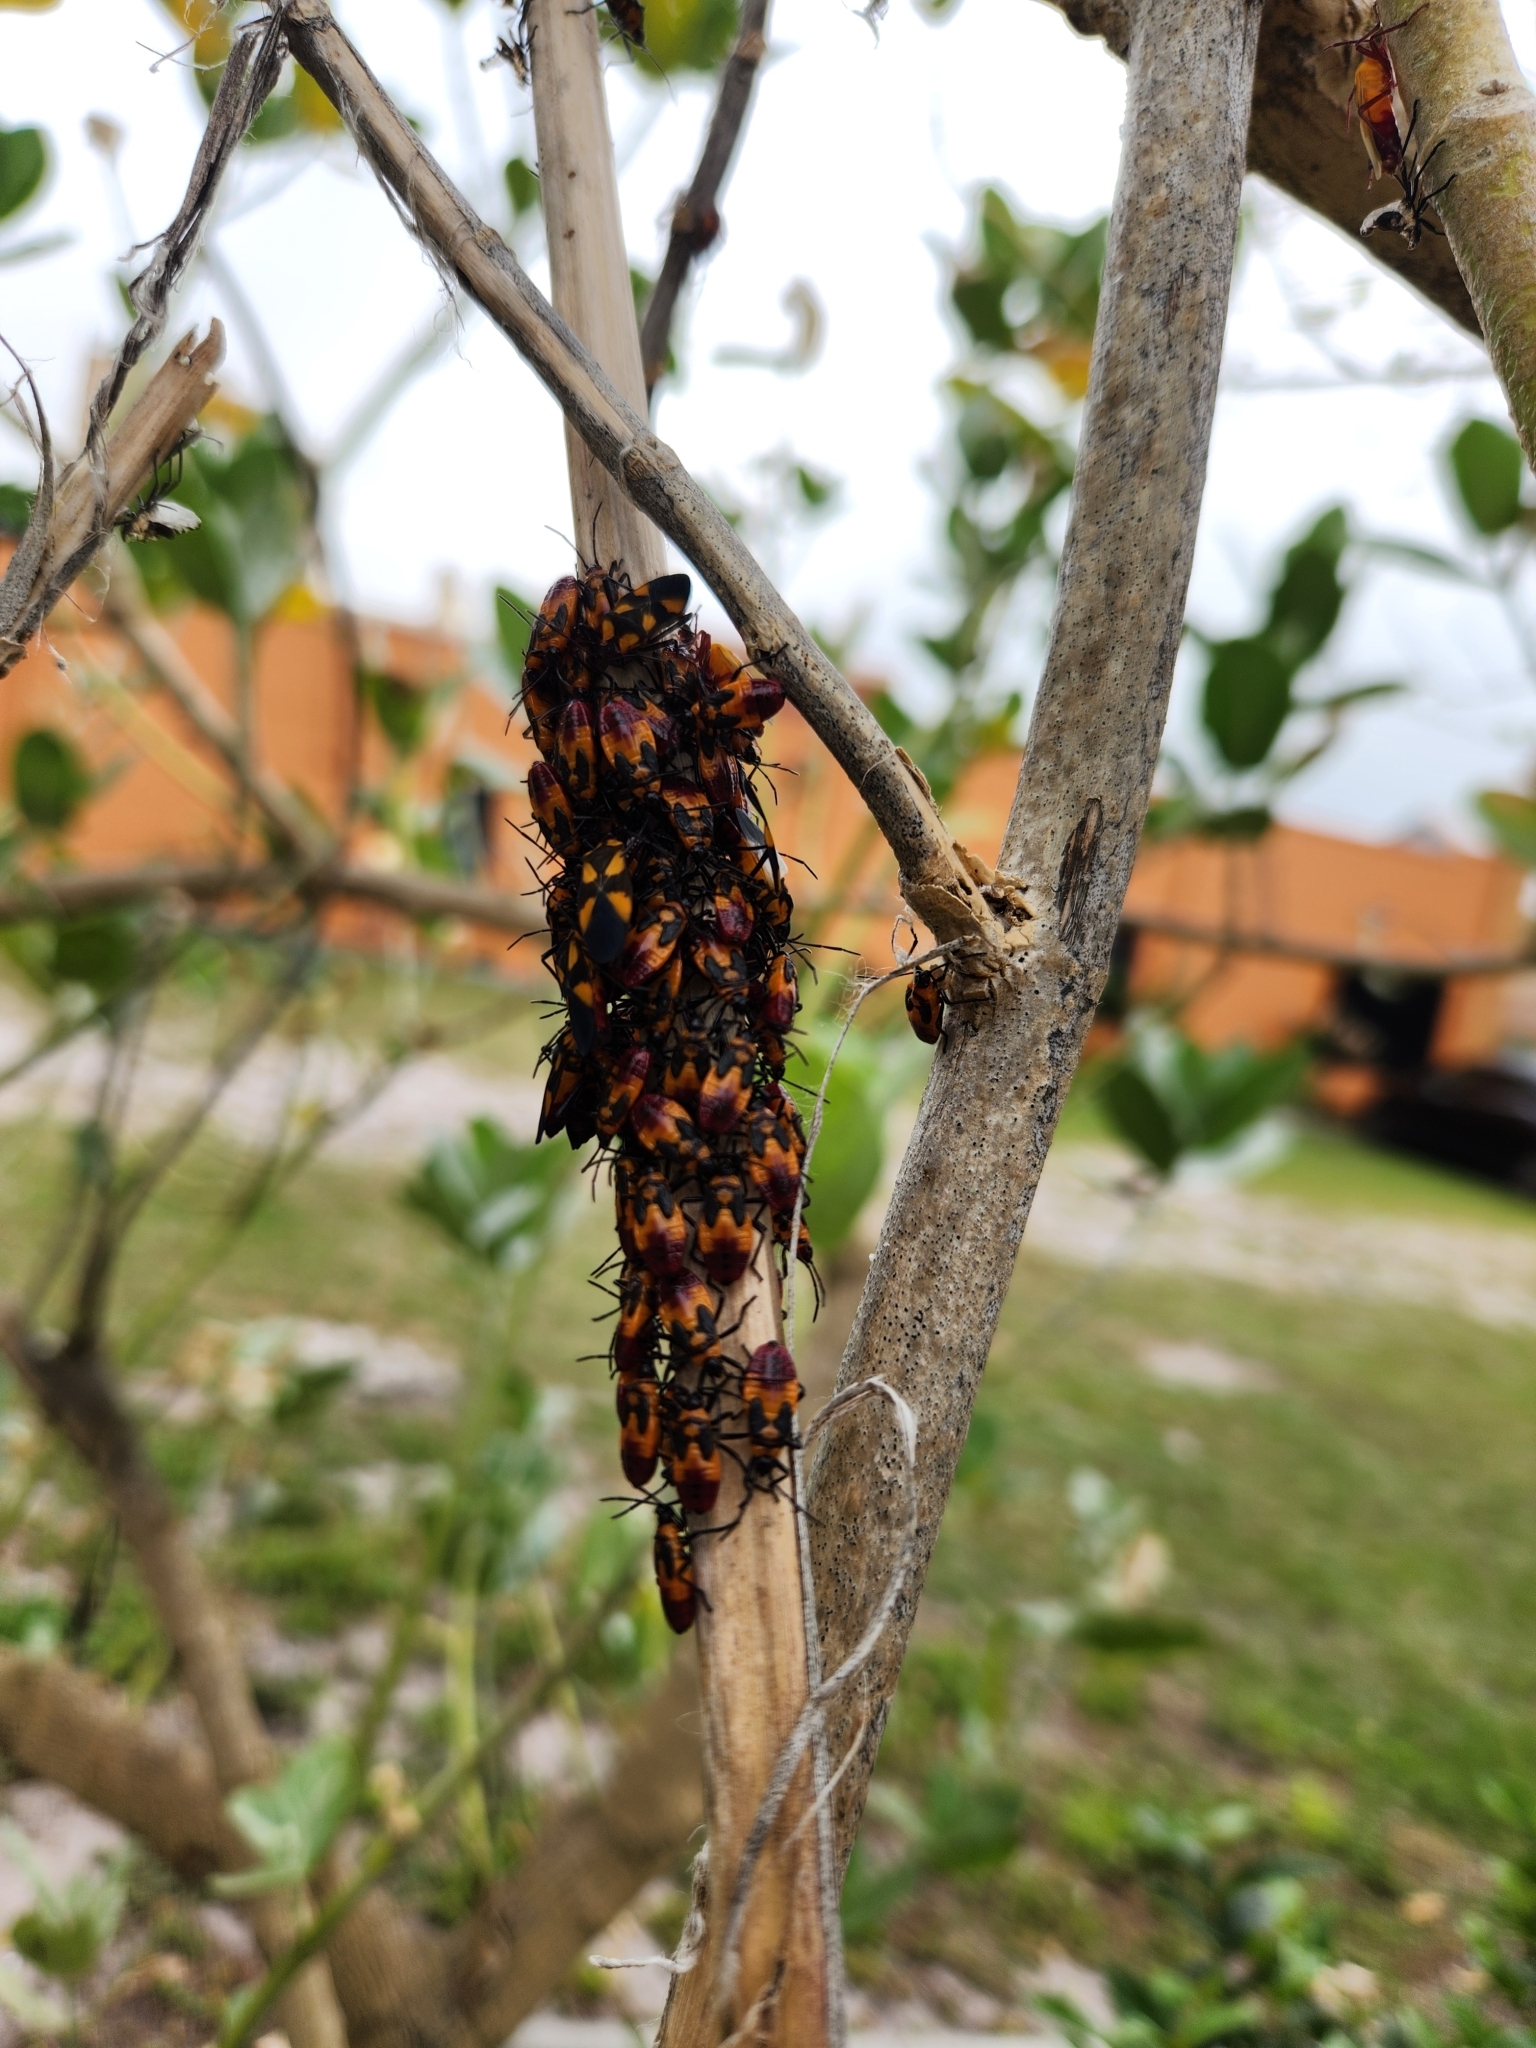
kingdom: Animalia
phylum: Arthropoda
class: Insecta
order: Hemiptera
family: Lygaeidae
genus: Oncopeltus
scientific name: Oncopeltus cayensis
